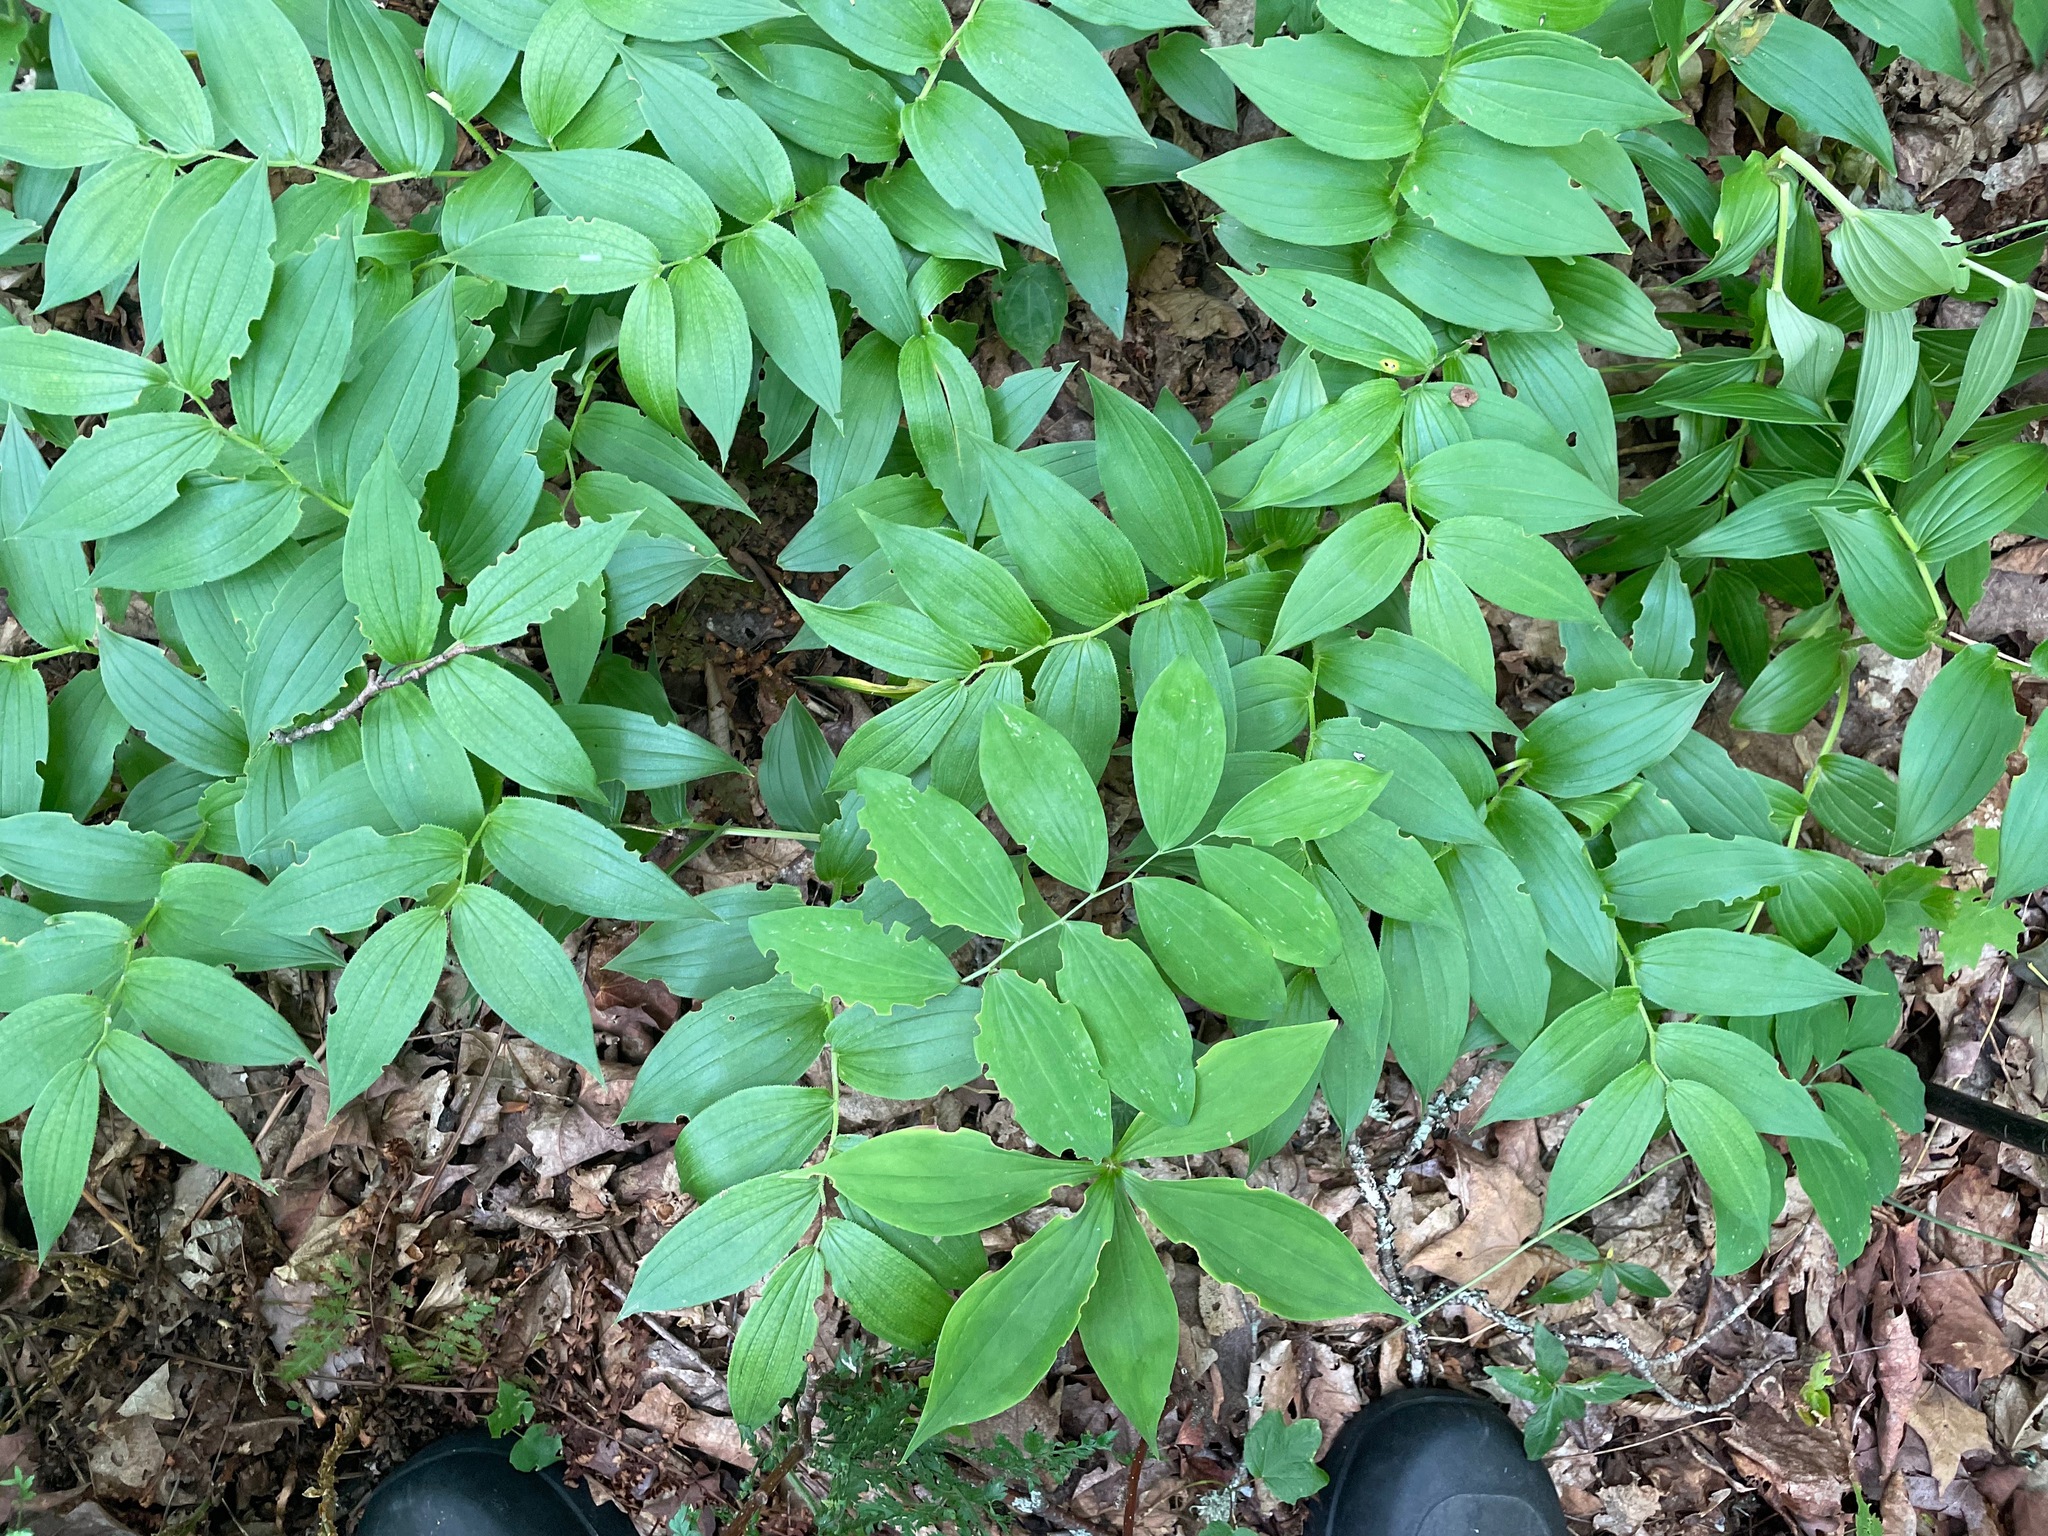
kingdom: Plantae
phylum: Tracheophyta
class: Liliopsida
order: Liliales
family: Liliaceae
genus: Streptopus
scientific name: Streptopus lanceolatus
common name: Rose mandarin
